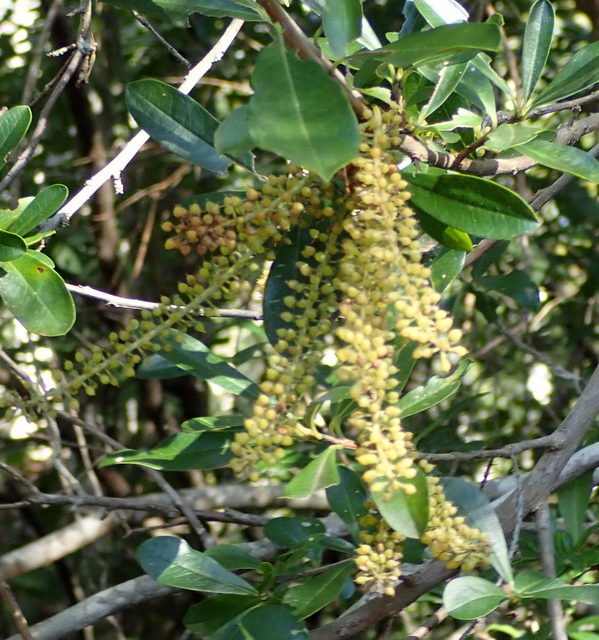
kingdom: Plantae
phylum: Tracheophyta
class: Magnoliopsida
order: Ericales
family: Cyrillaceae
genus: Cyrilla
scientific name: Cyrilla racemiflora
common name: Black titi
